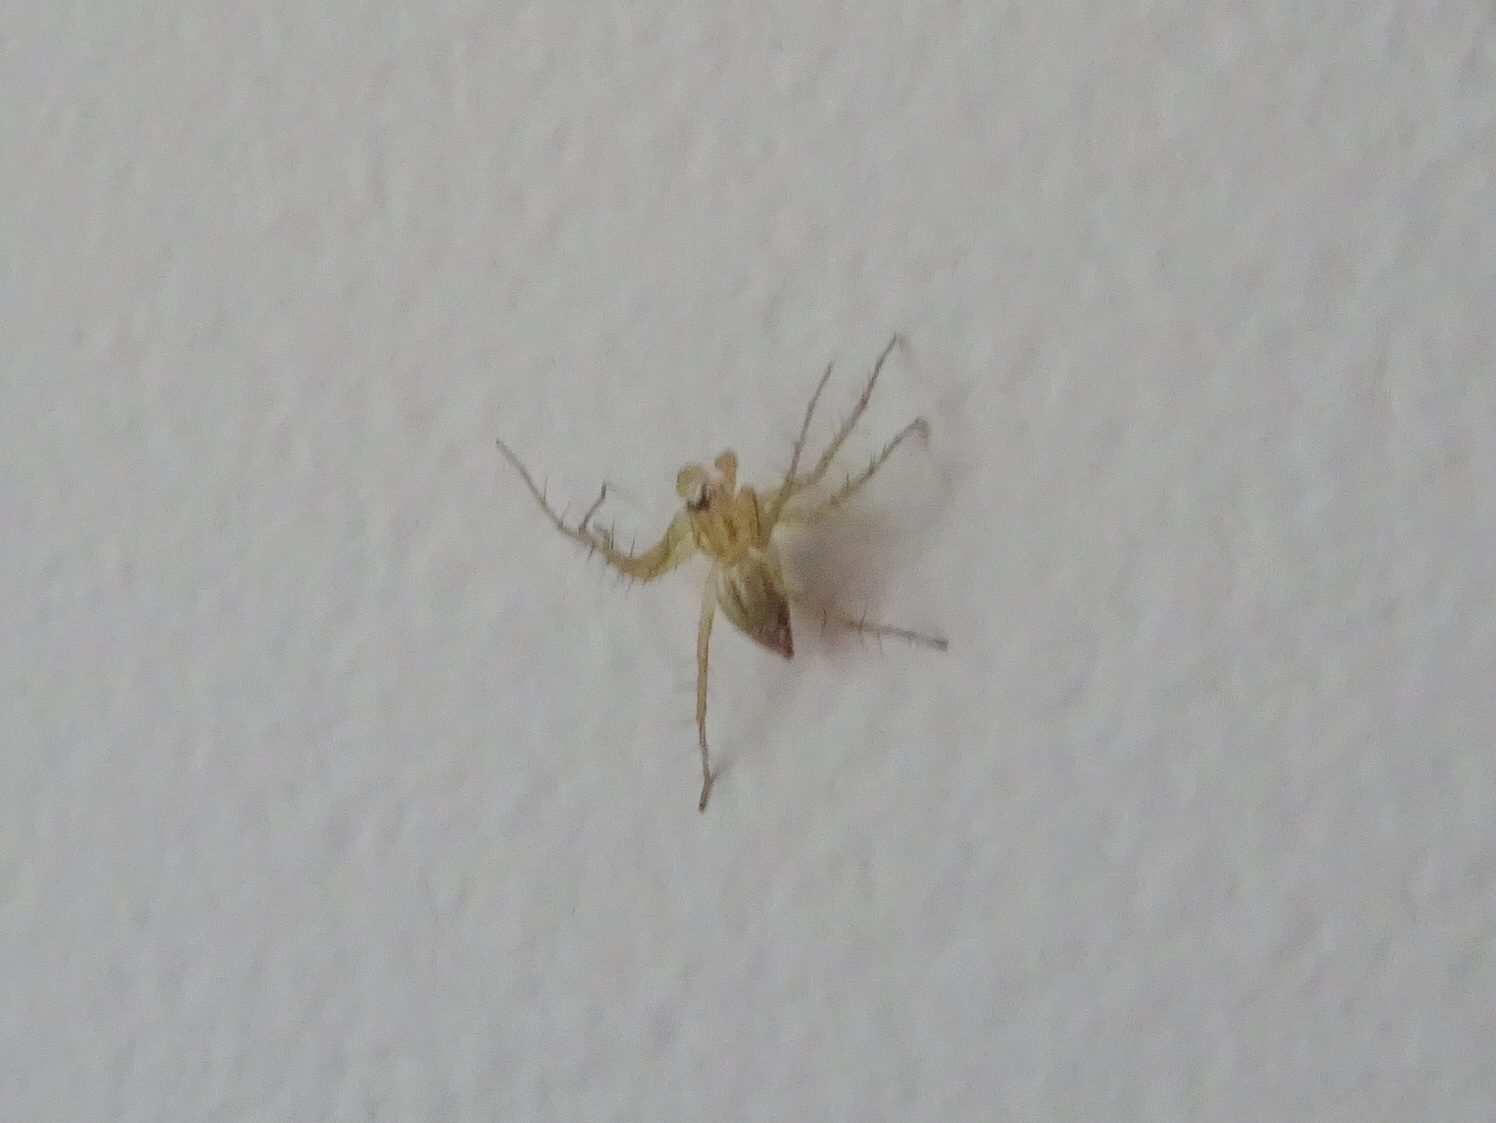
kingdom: Animalia
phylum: Arthropoda
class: Arachnida
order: Araneae
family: Oxyopidae
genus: Oxyopes
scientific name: Oxyopes salticus
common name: Lynx spiders
